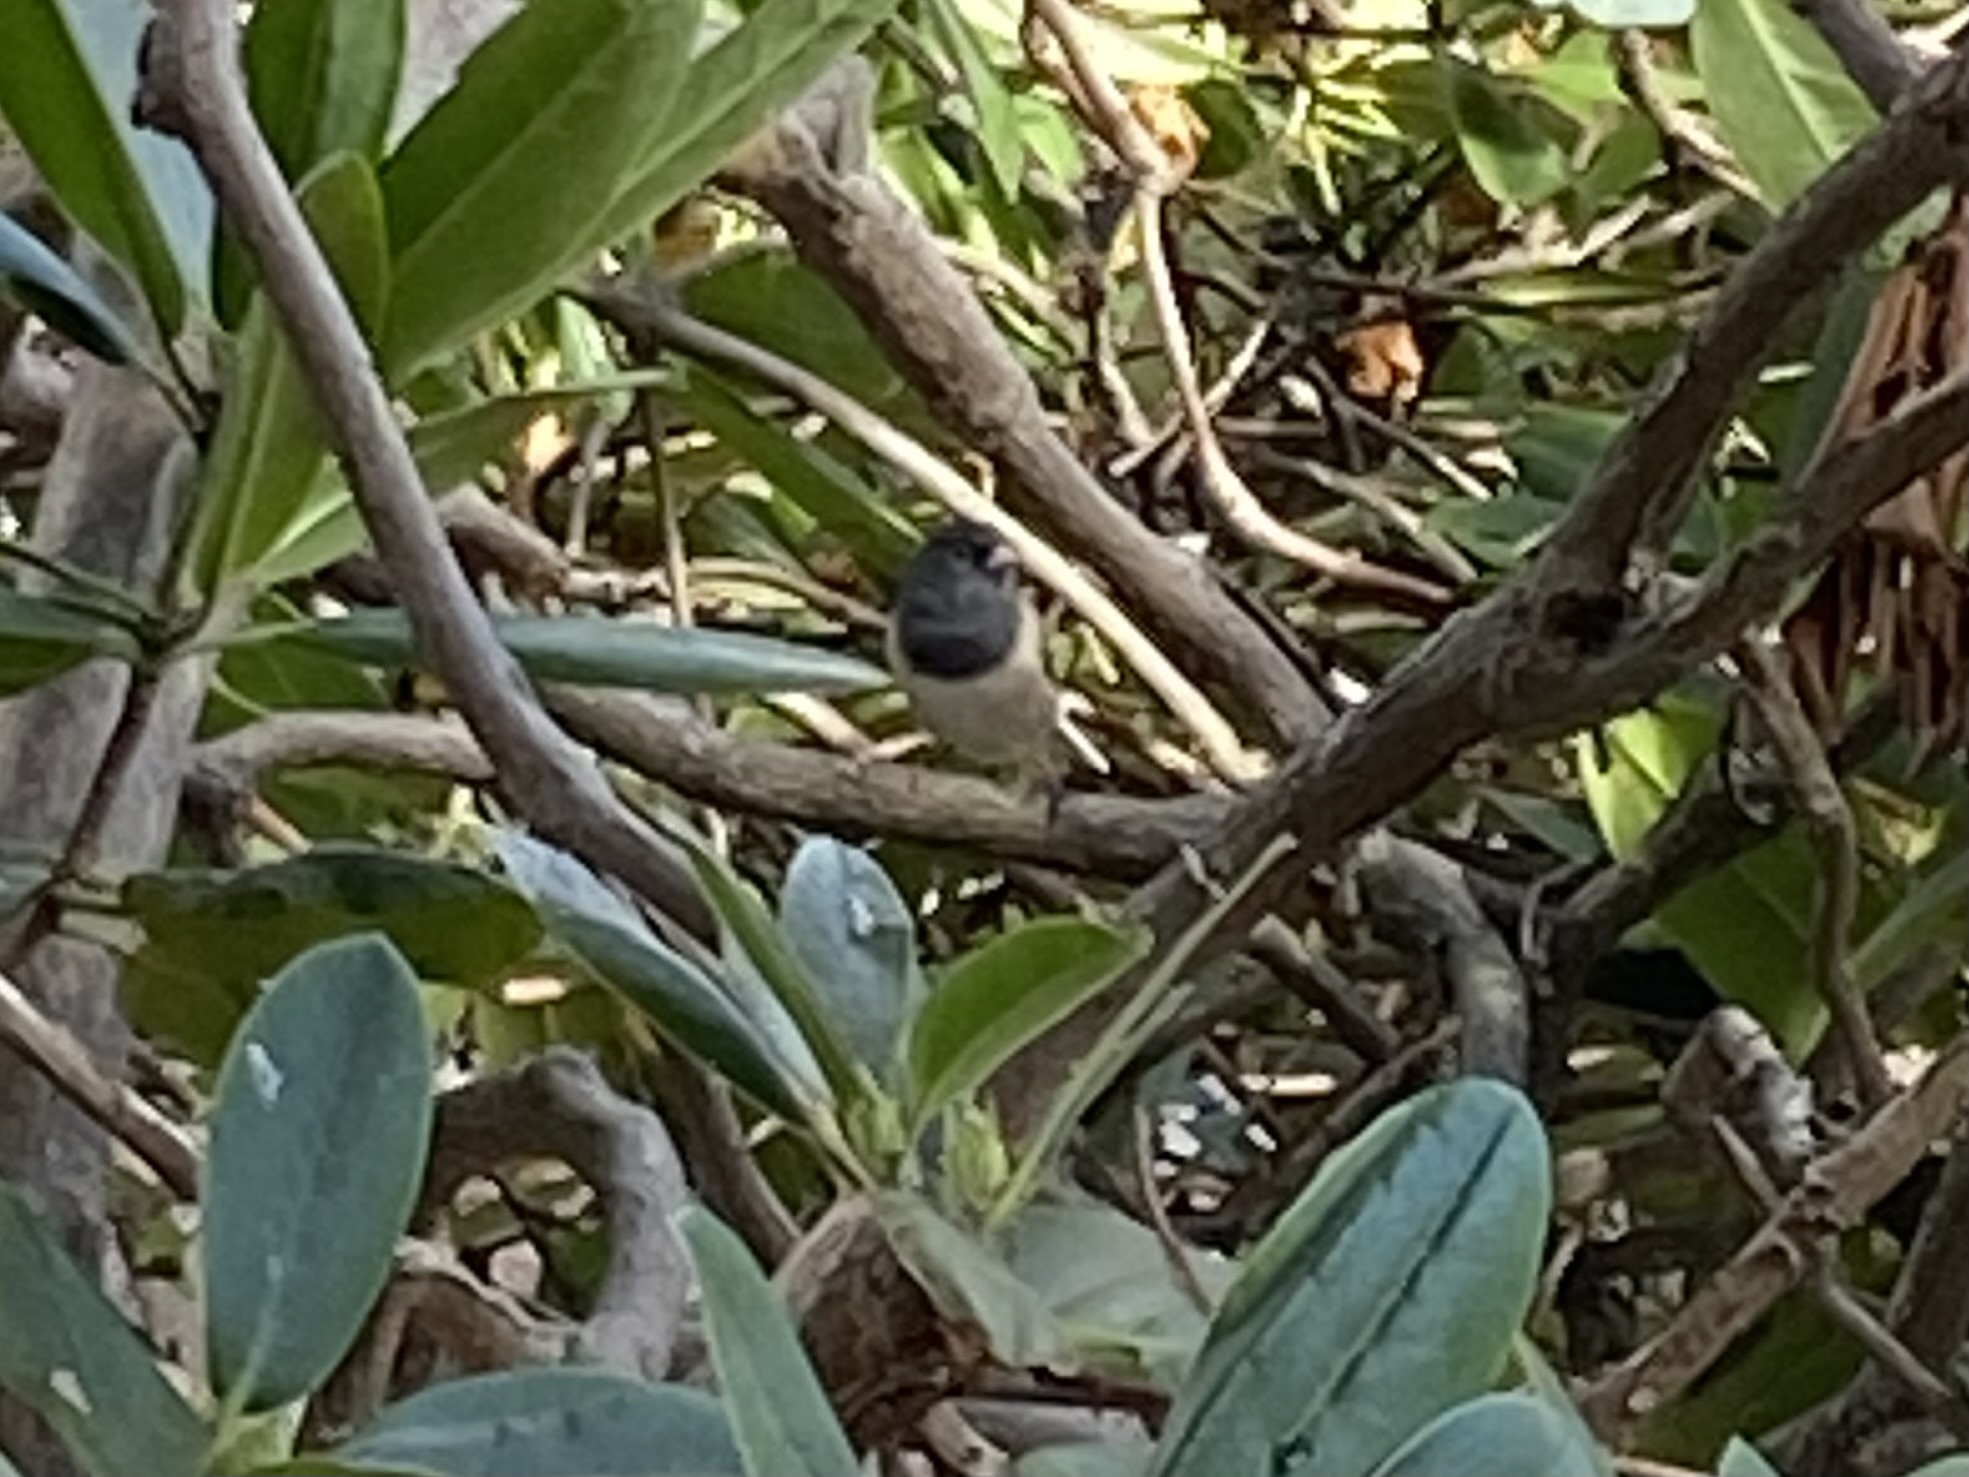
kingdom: Animalia
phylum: Chordata
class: Aves
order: Passeriformes
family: Passerellidae
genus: Junco
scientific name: Junco hyemalis
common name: Dark-eyed junco
